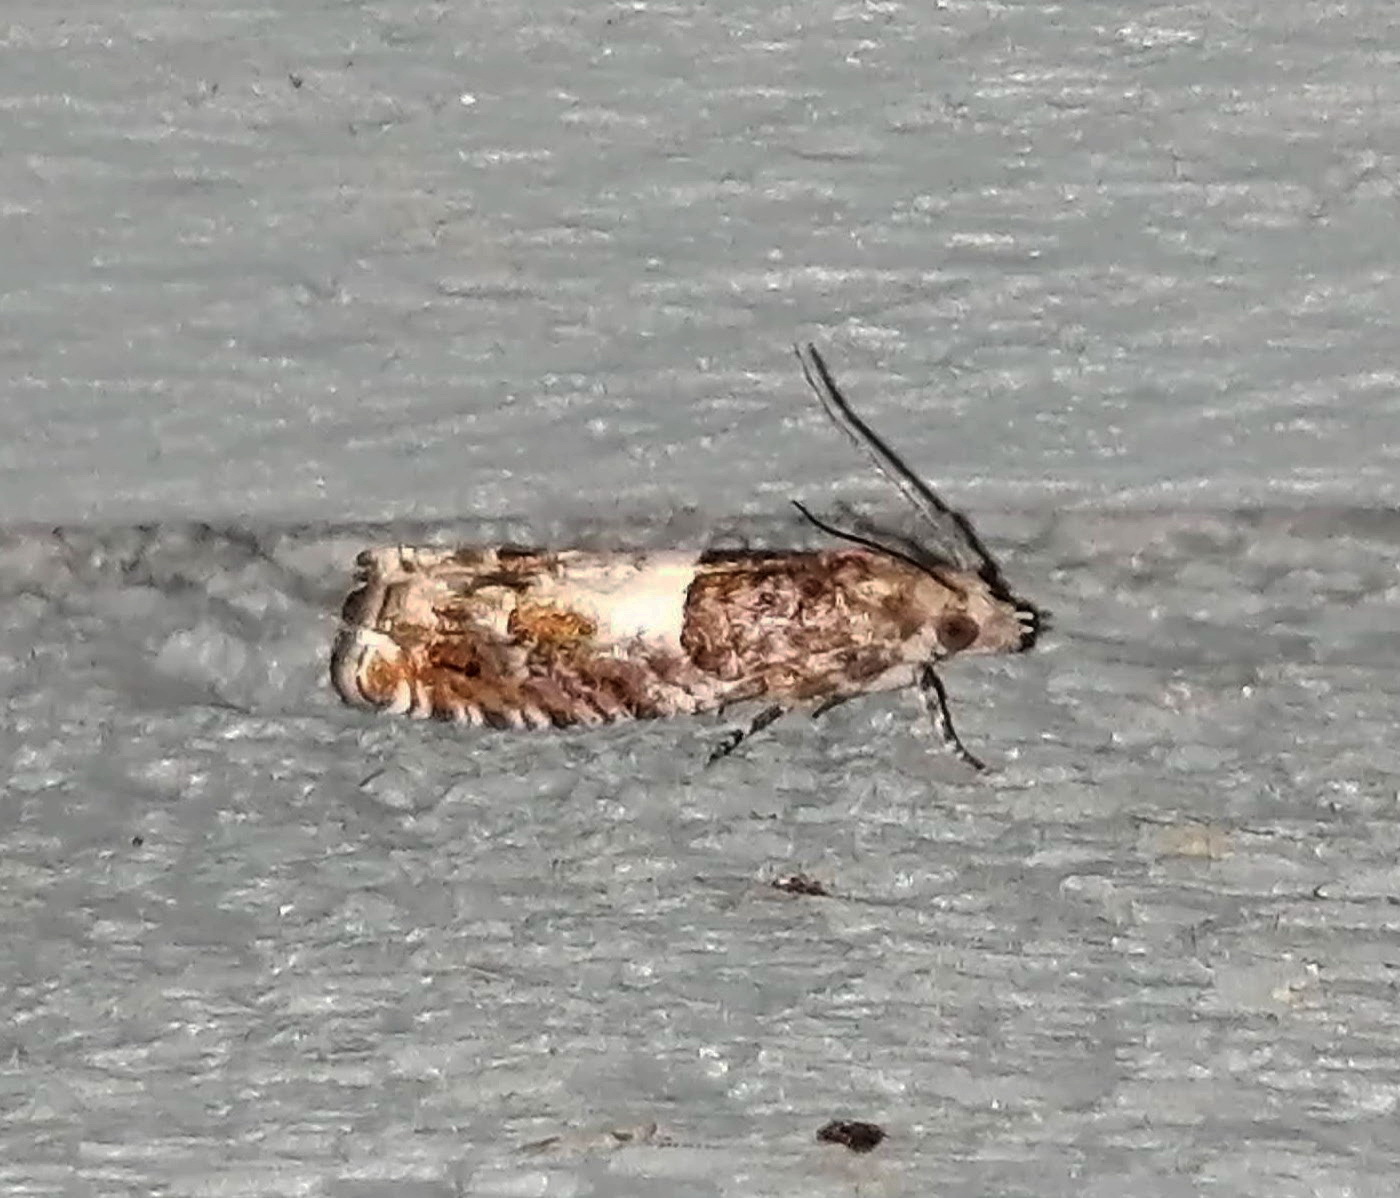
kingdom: Animalia
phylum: Arthropoda
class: Insecta
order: Lepidoptera
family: Tortricidae
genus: Epinotia
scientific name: Epinotia transmissana
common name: Walker's epinotia moth
